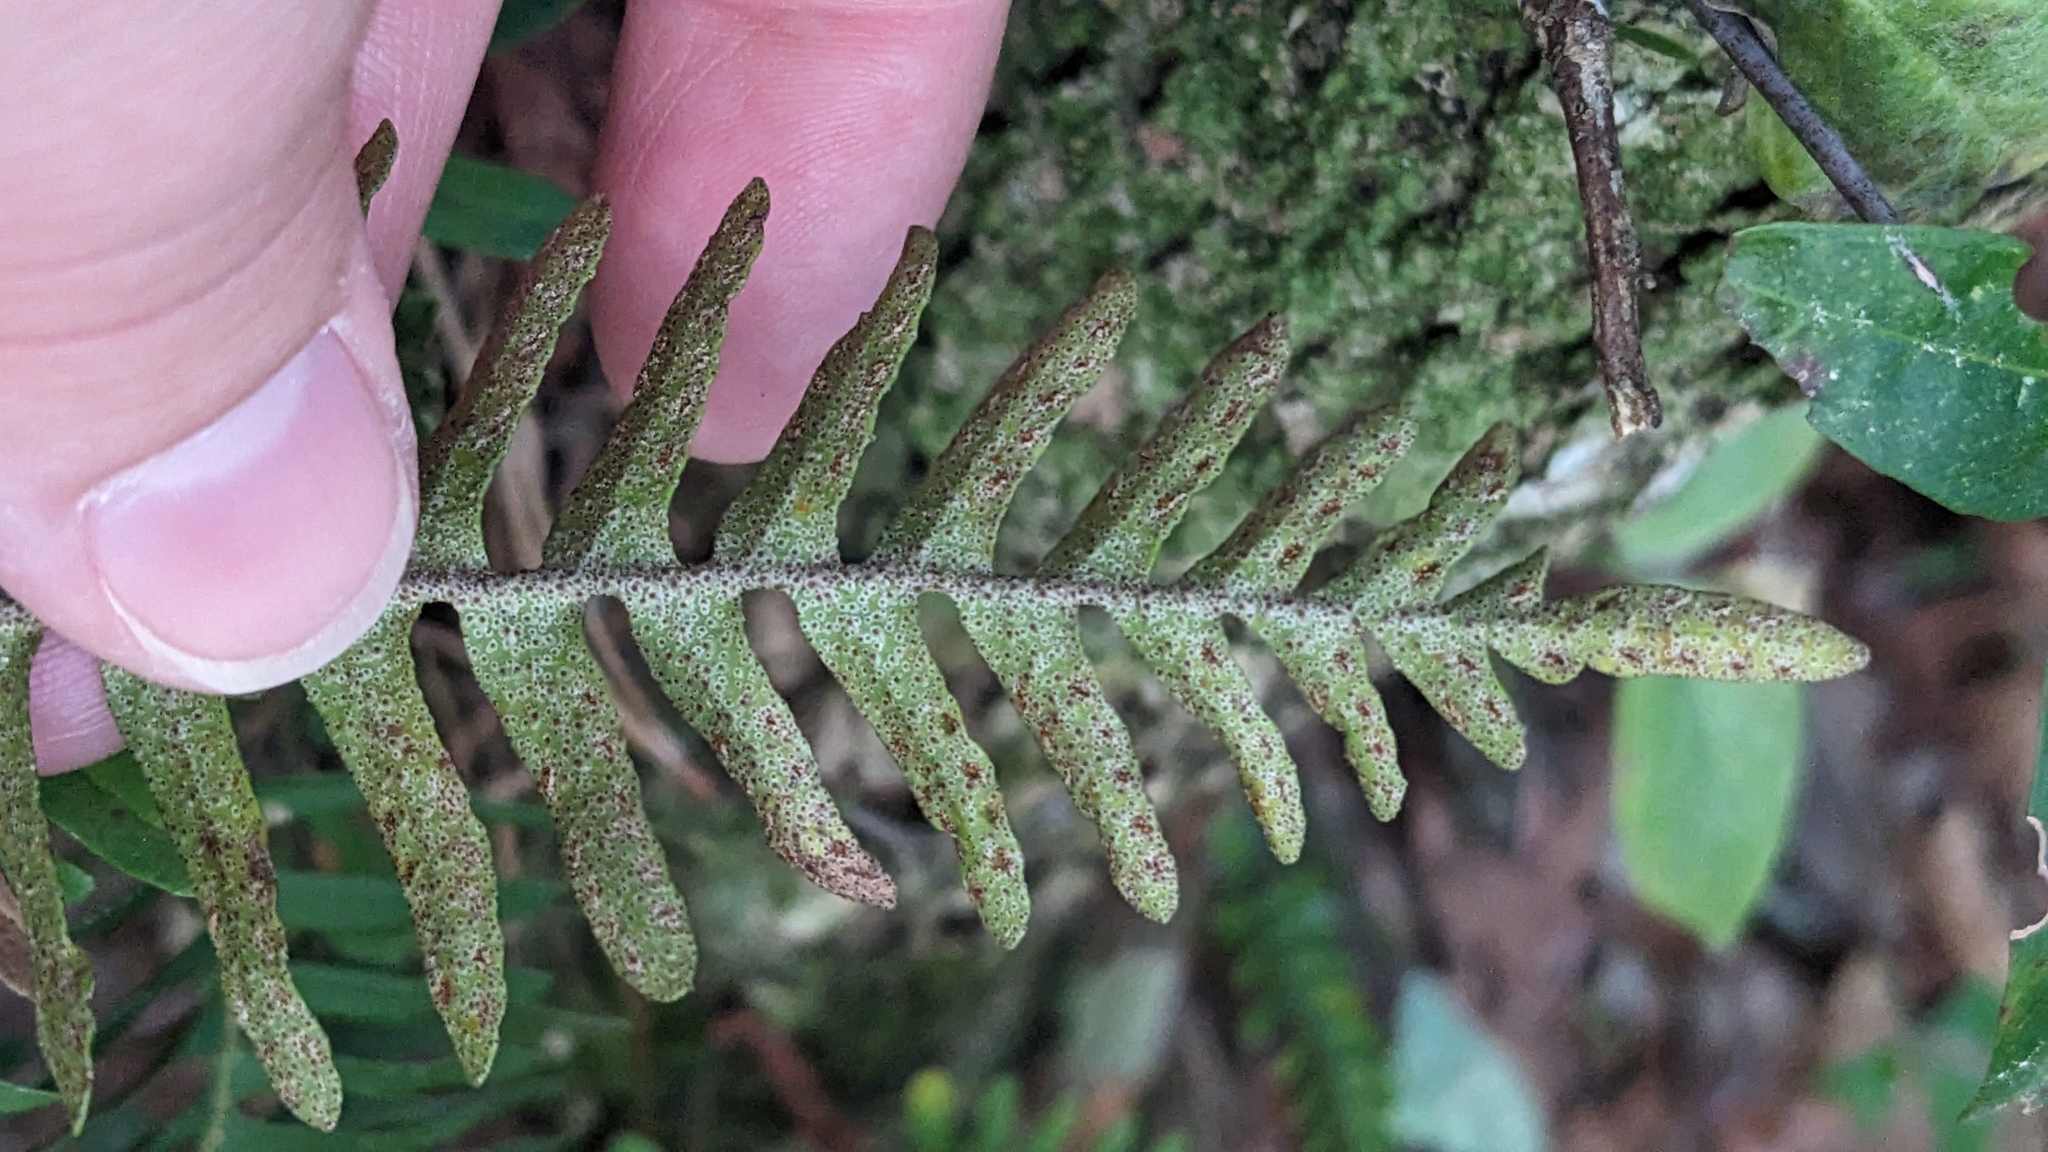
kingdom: Plantae
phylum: Tracheophyta
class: Polypodiopsida
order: Polypodiales
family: Polypodiaceae
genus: Pleopeltis
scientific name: Pleopeltis michauxiana
